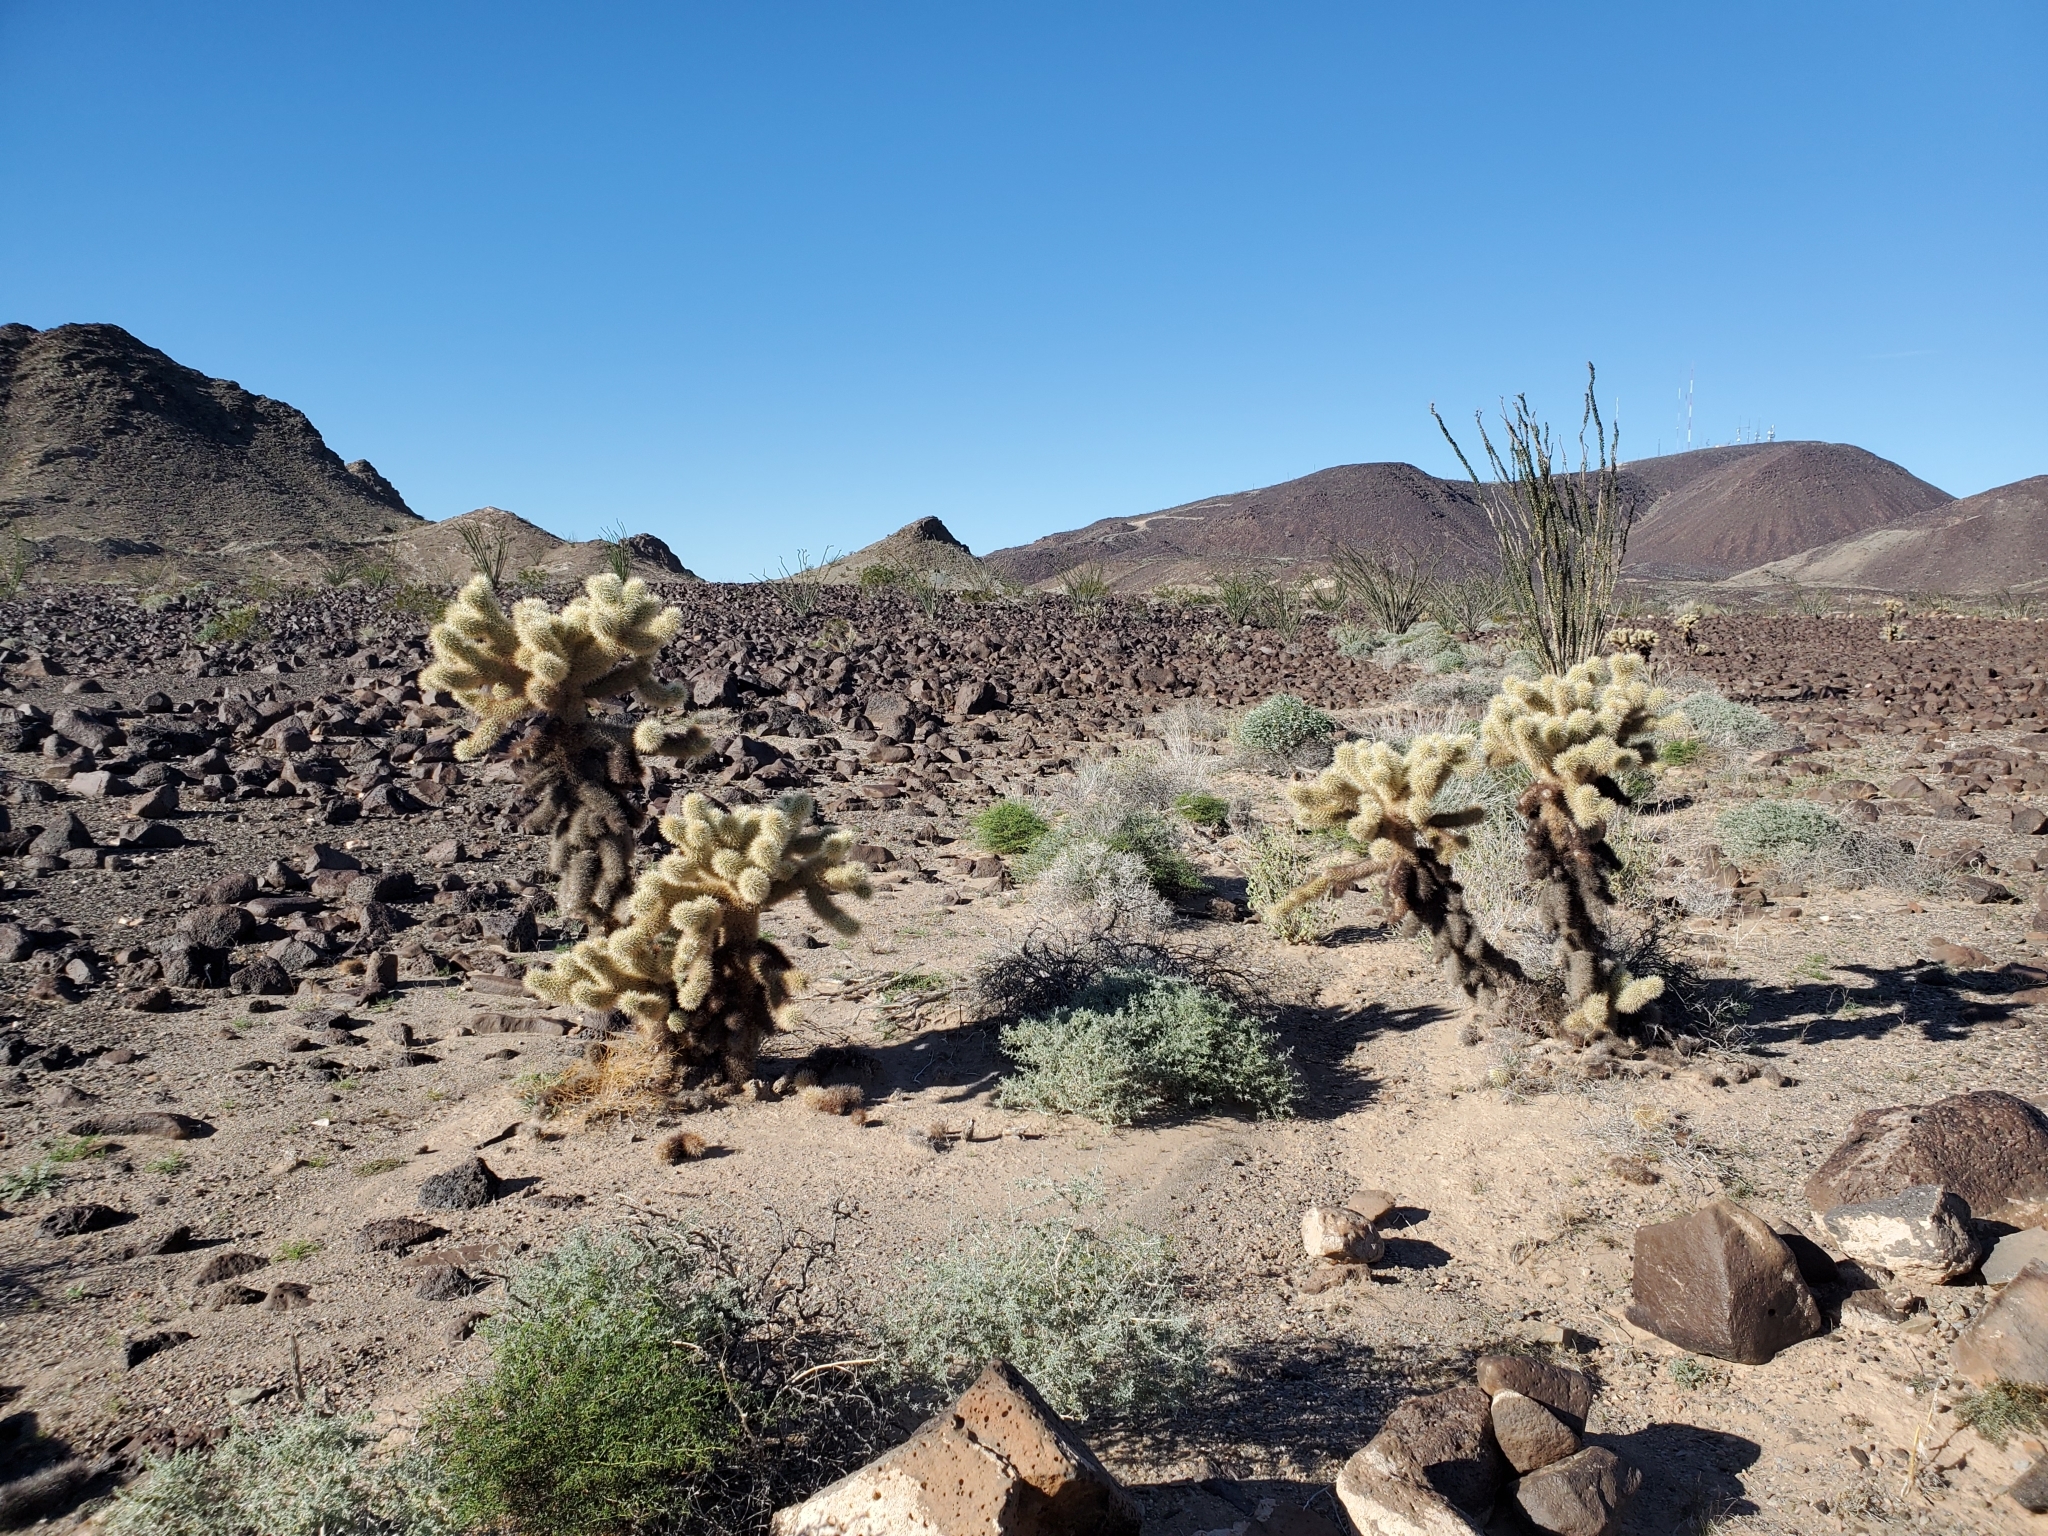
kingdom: Plantae
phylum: Tracheophyta
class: Magnoliopsida
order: Caryophyllales
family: Cactaceae
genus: Cylindropuntia
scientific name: Cylindropuntia fosbergii
